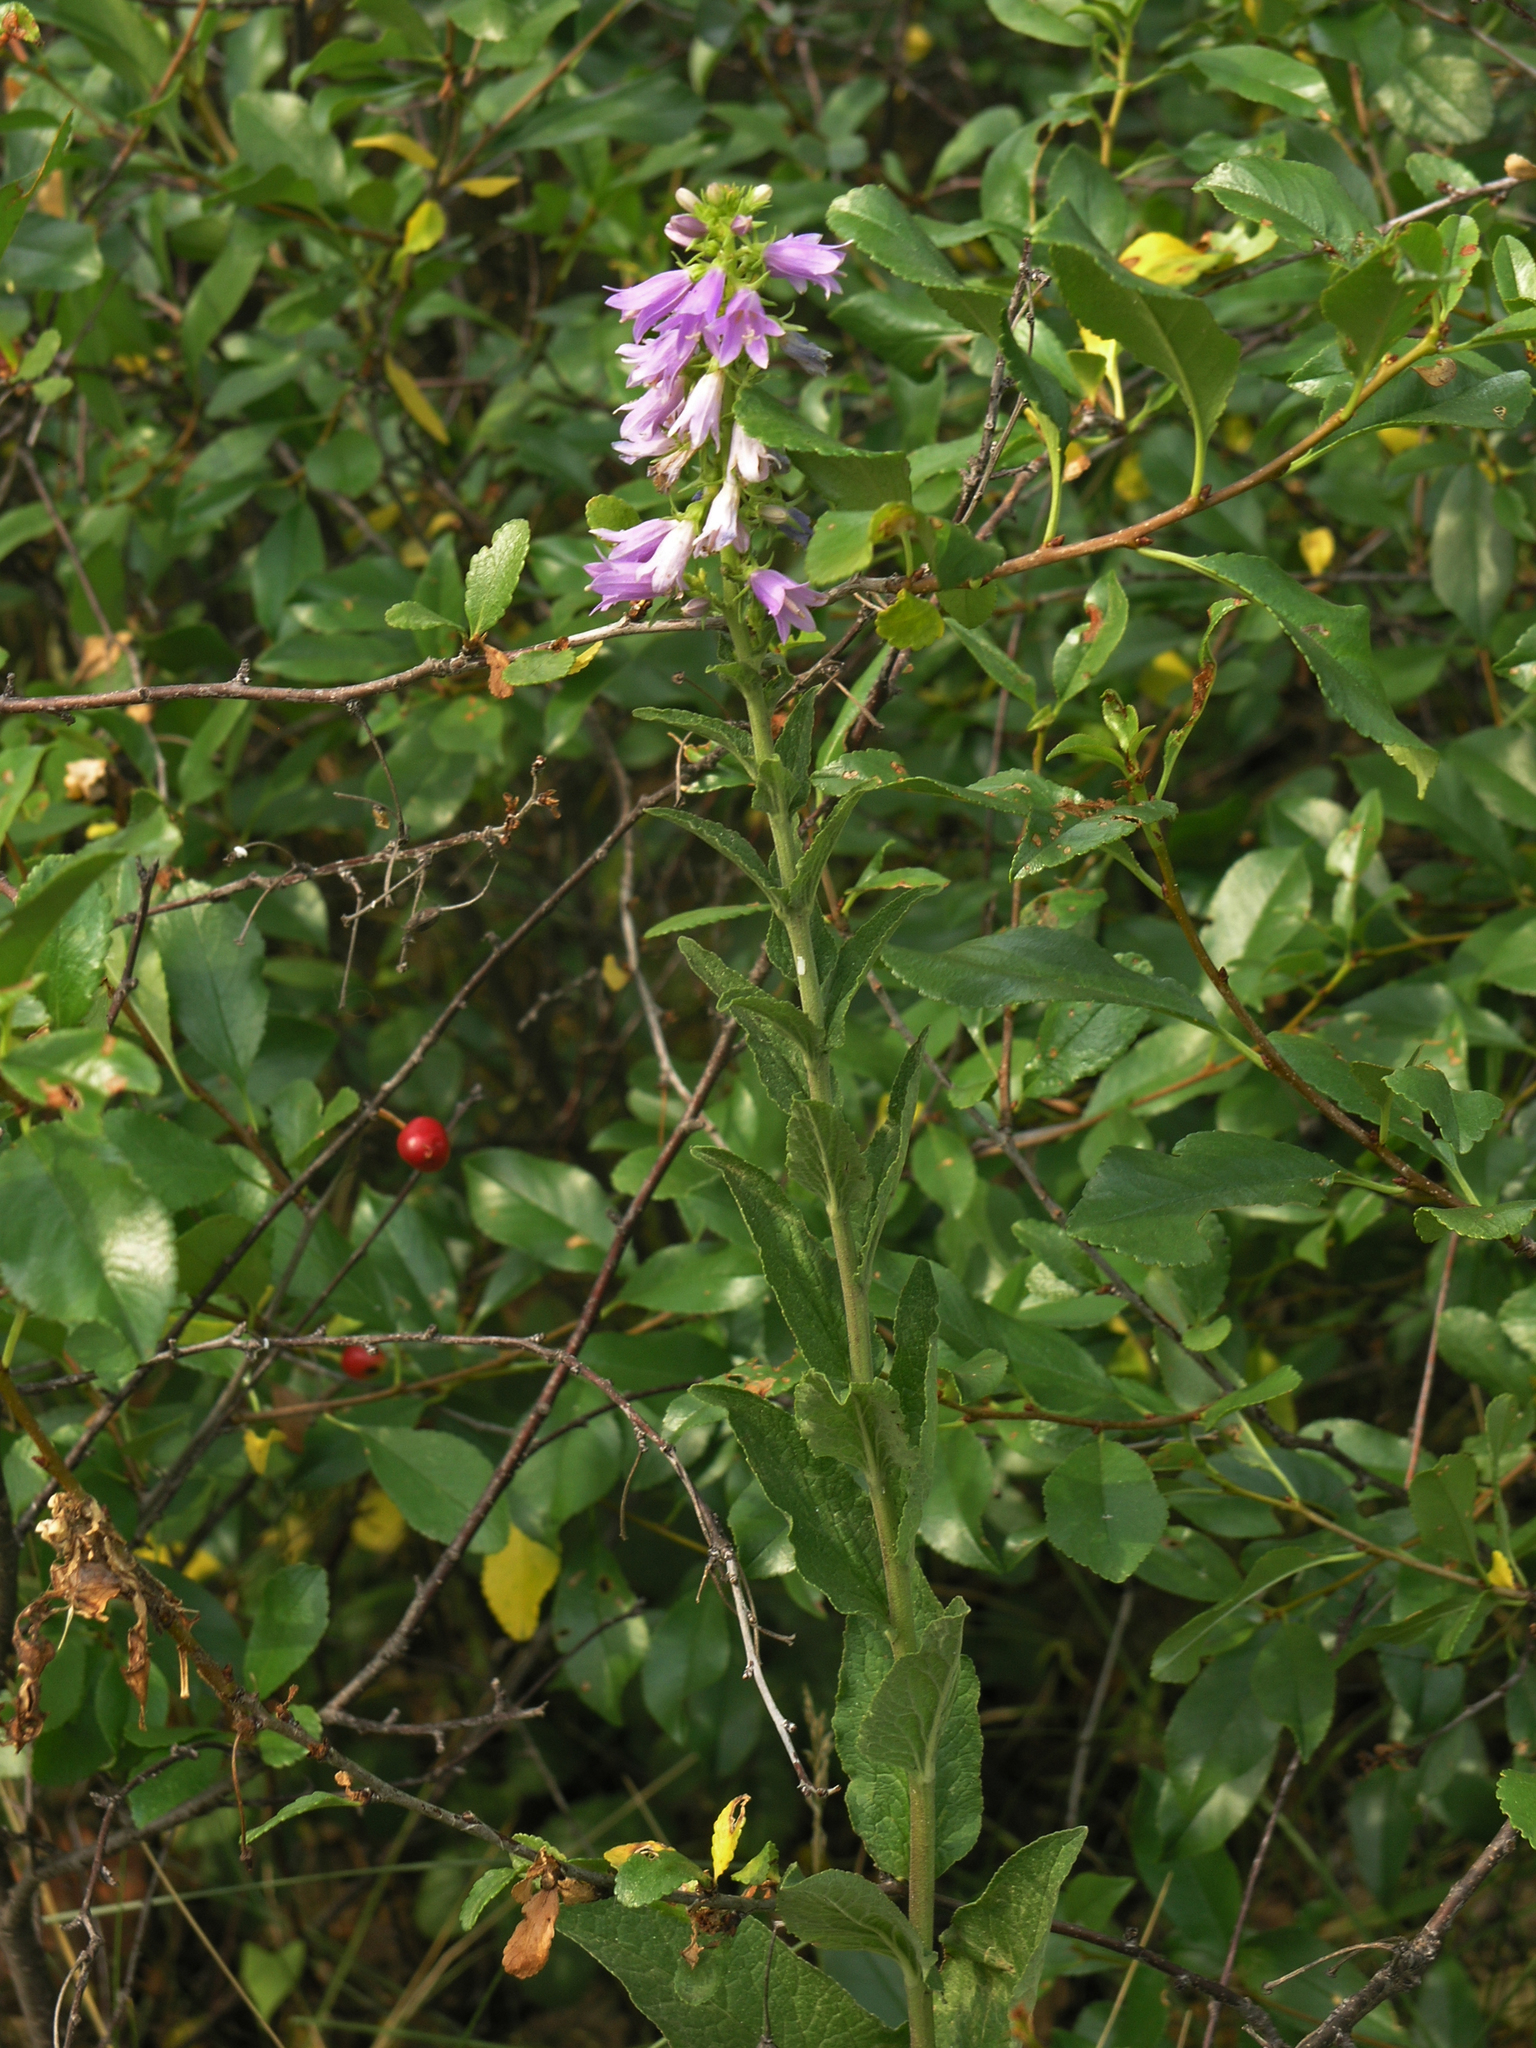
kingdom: Plantae
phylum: Tracheophyta
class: Magnoliopsida
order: Asterales
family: Campanulaceae
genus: Campanula
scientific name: Campanula bononiensis
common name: Pale bellflower
